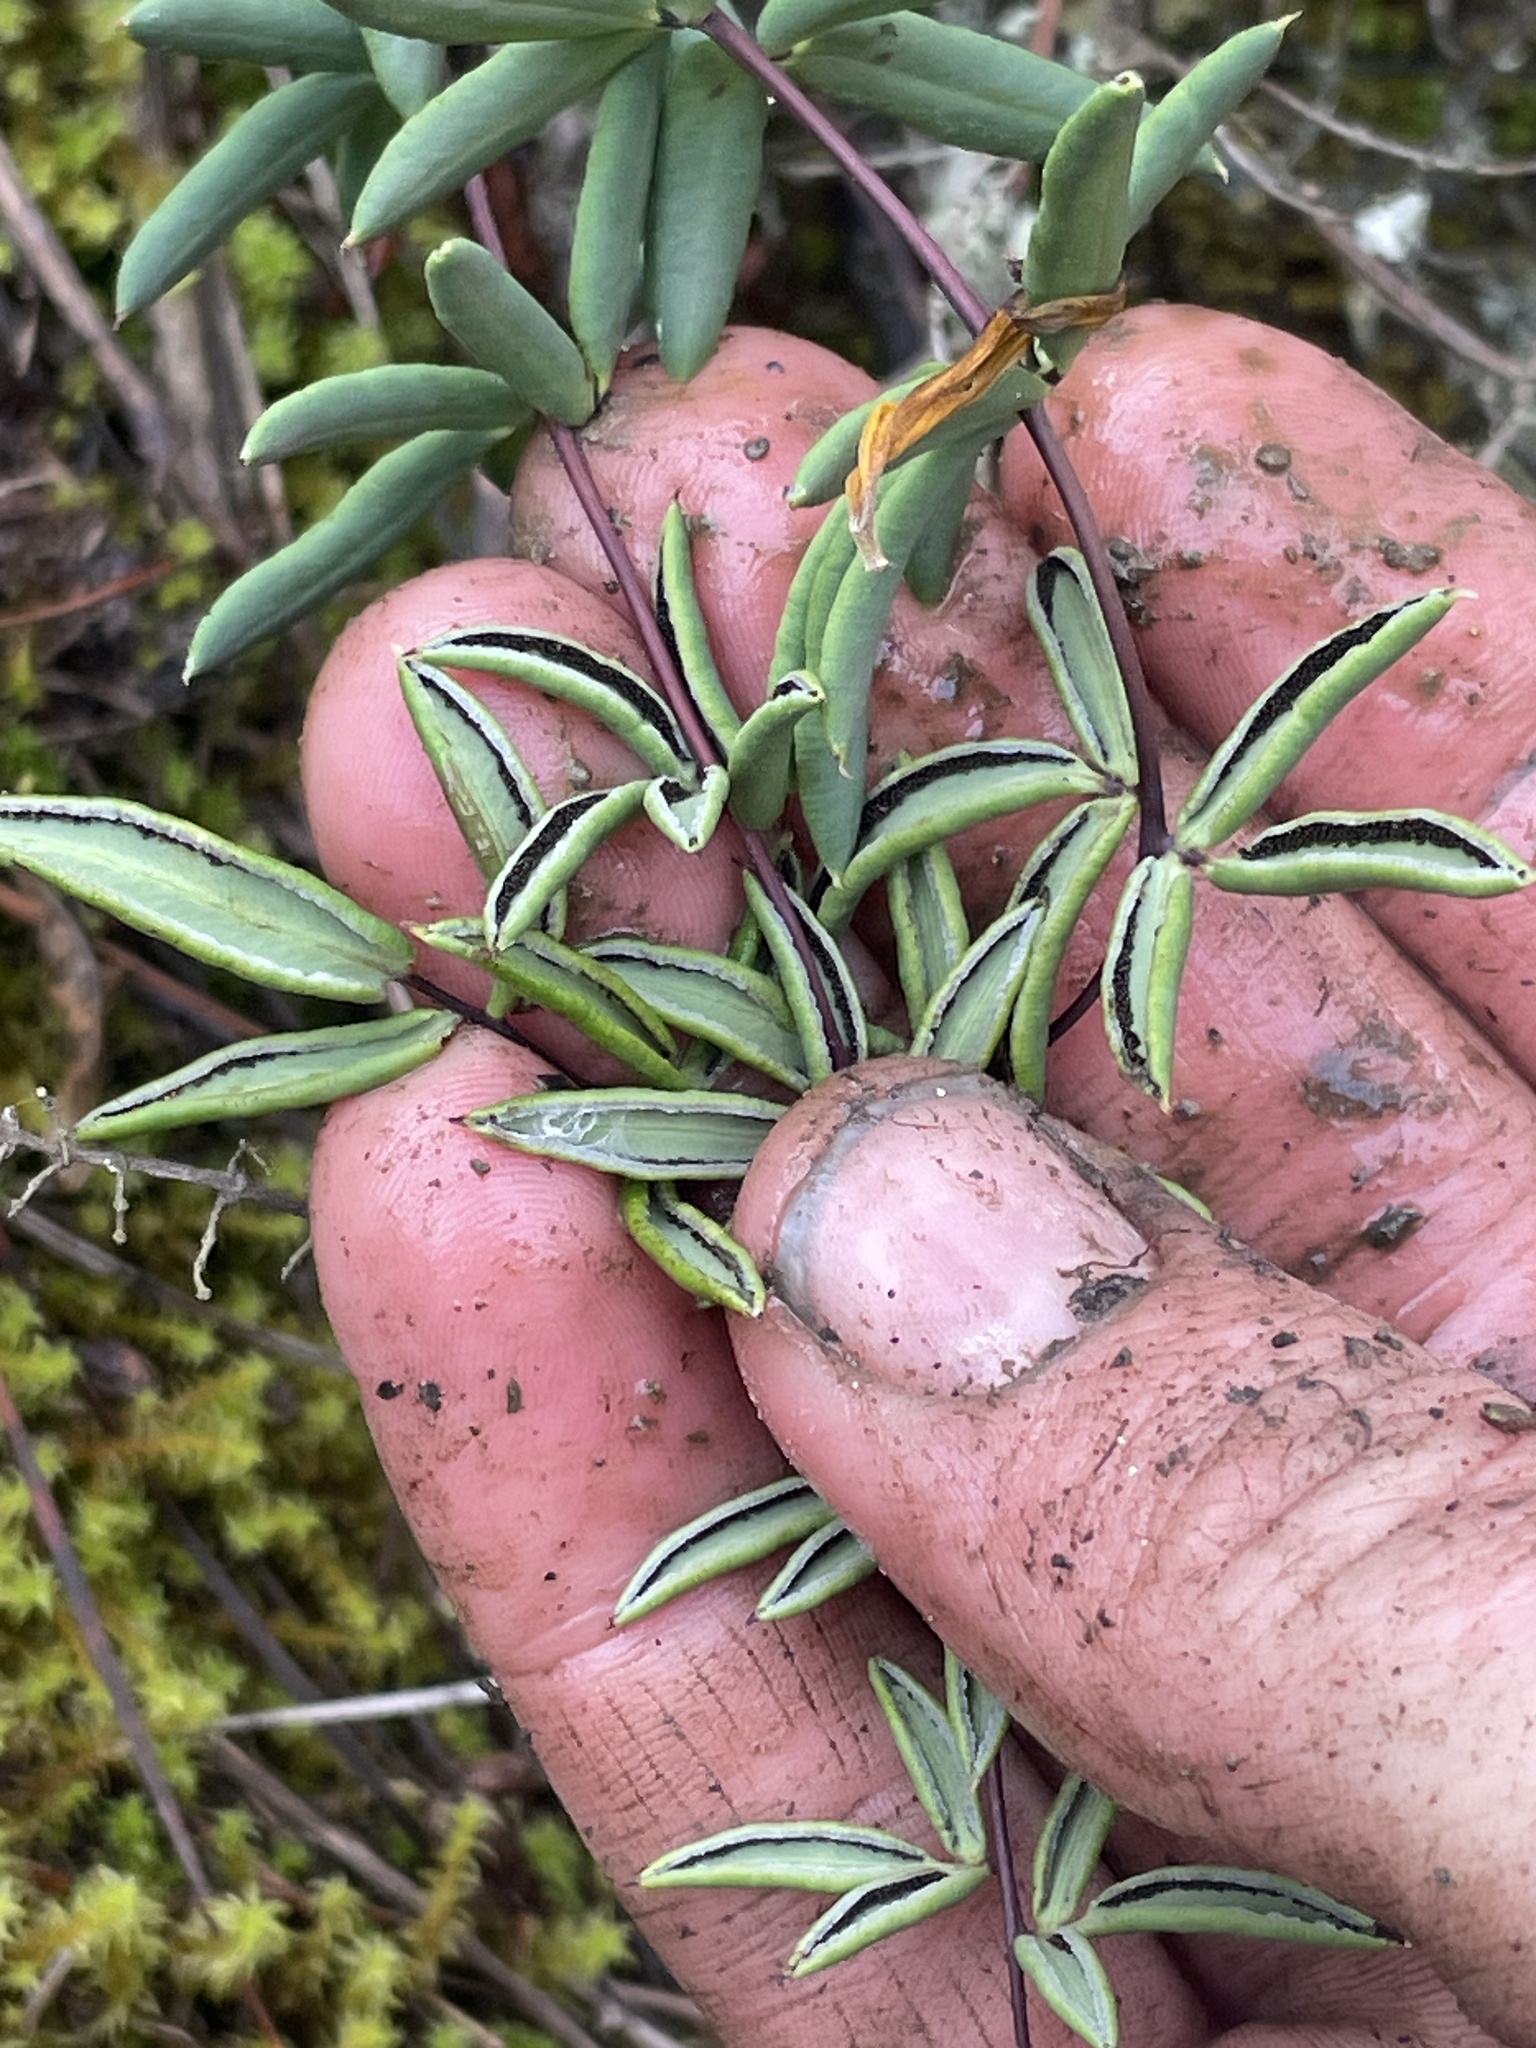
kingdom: Plantae
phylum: Tracheophyta
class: Polypodiopsida
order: Polypodiales
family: Pteridaceae
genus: Pellaea
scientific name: Pellaea ternifolia
